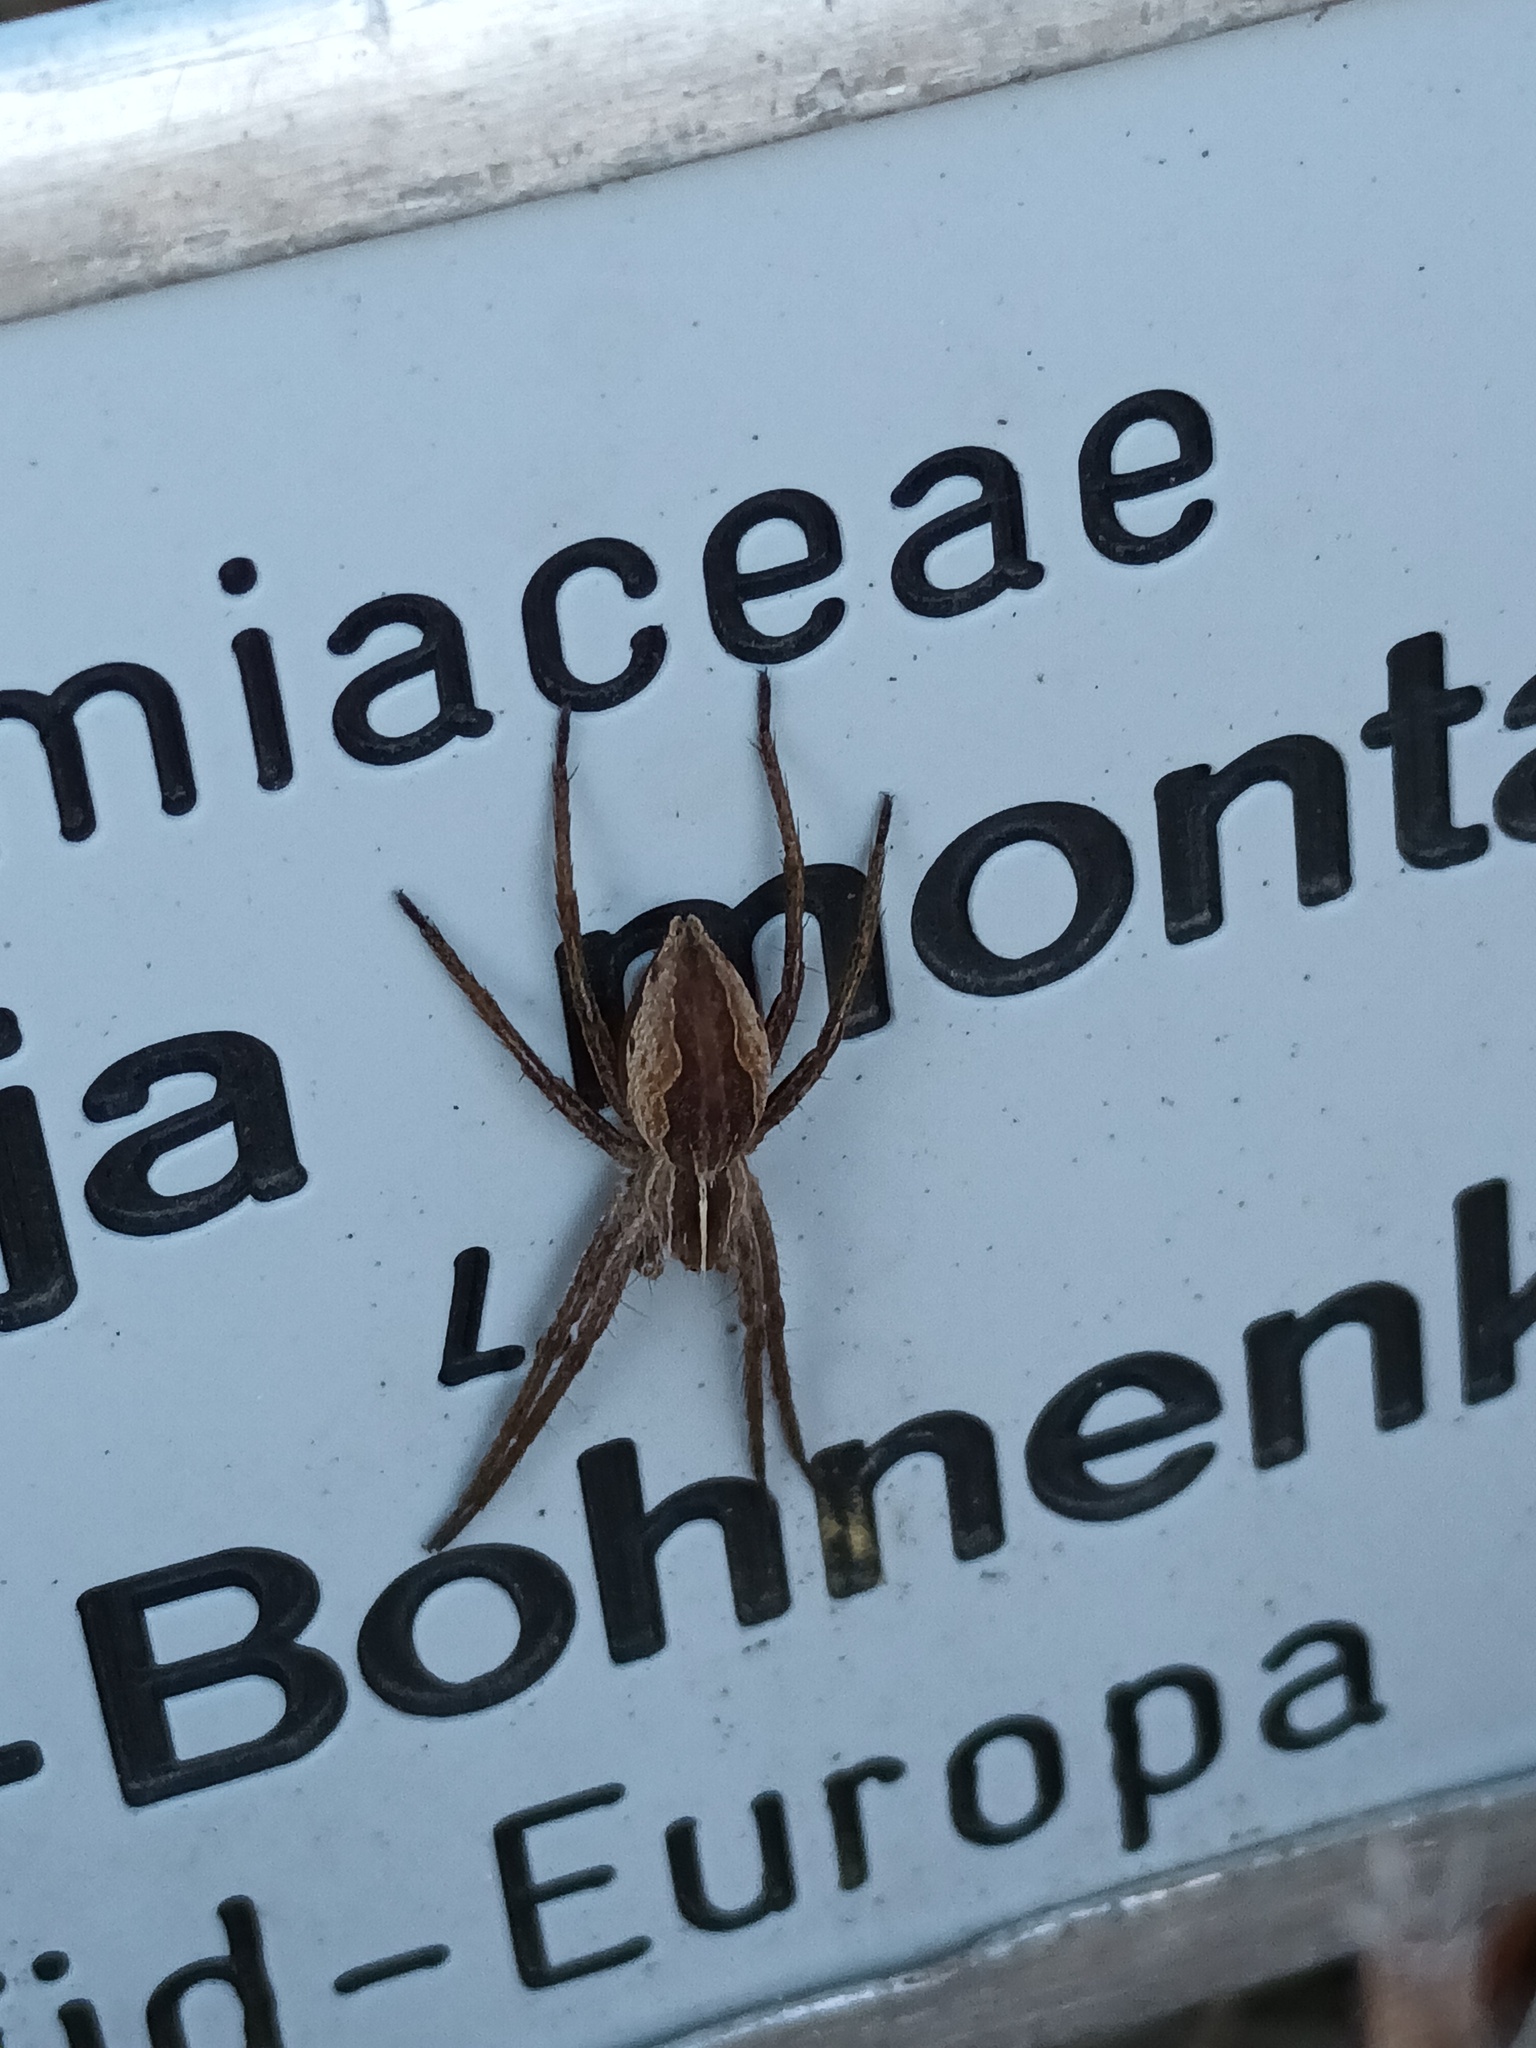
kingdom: Animalia
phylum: Arthropoda
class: Arachnida
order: Araneae
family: Pisauridae
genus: Pisaura
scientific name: Pisaura mirabilis
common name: Tent spider
